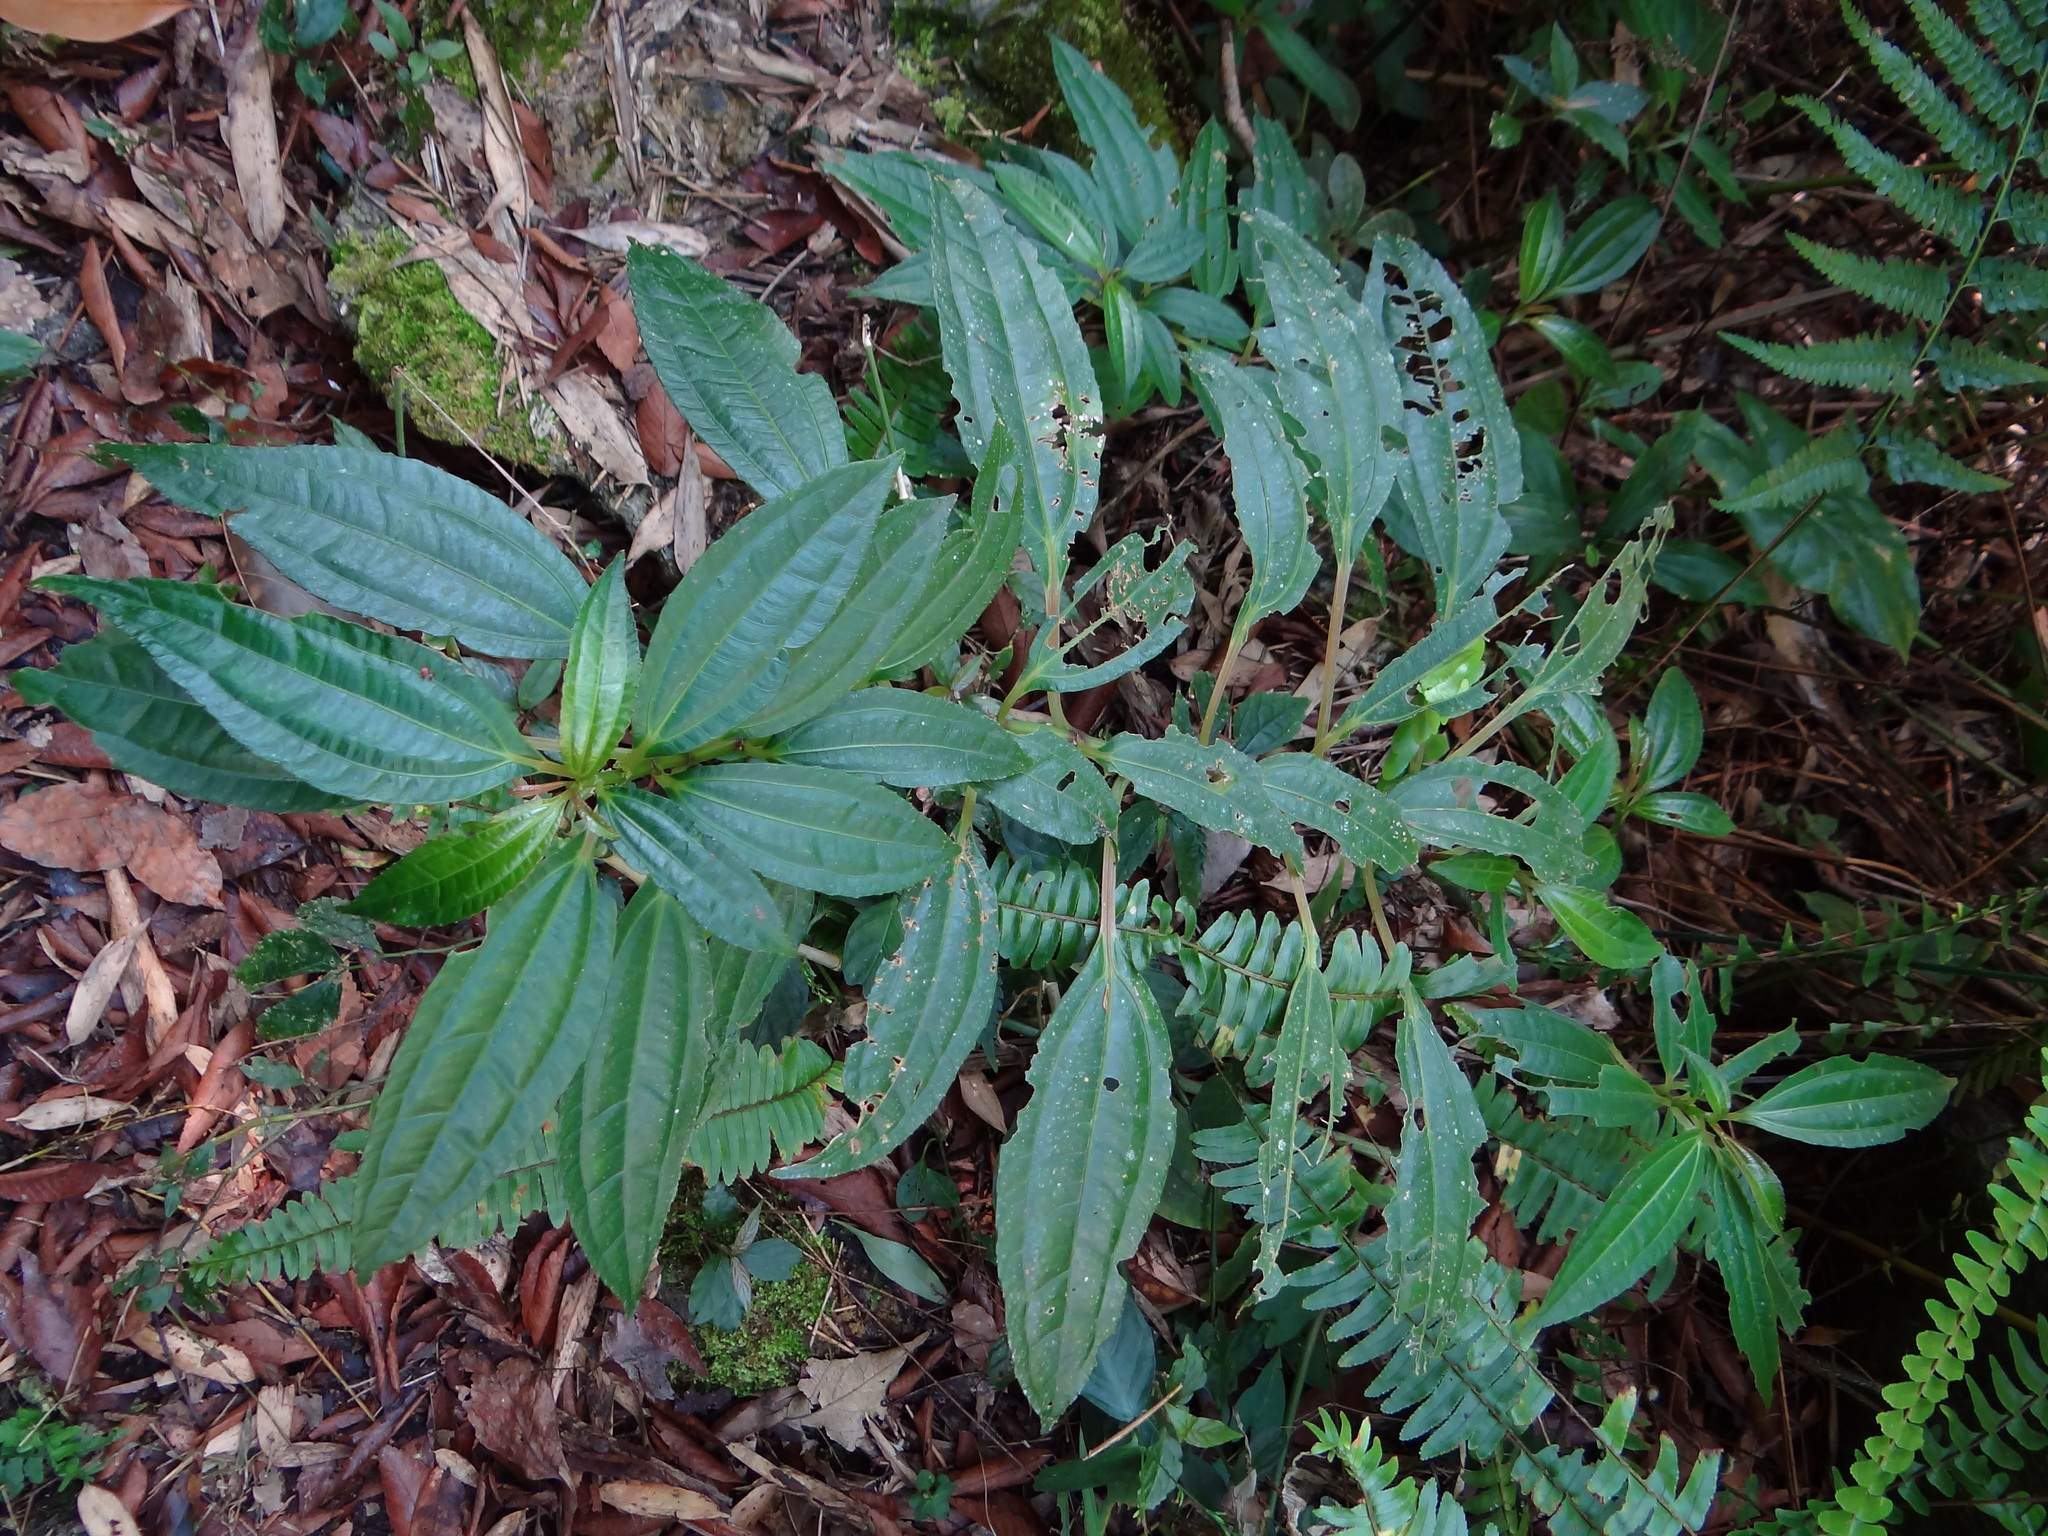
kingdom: Plantae
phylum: Tracheophyta
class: Magnoliopsida
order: Rosales
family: Urticaceae
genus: Pilea
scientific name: Pilea rotundinucula
